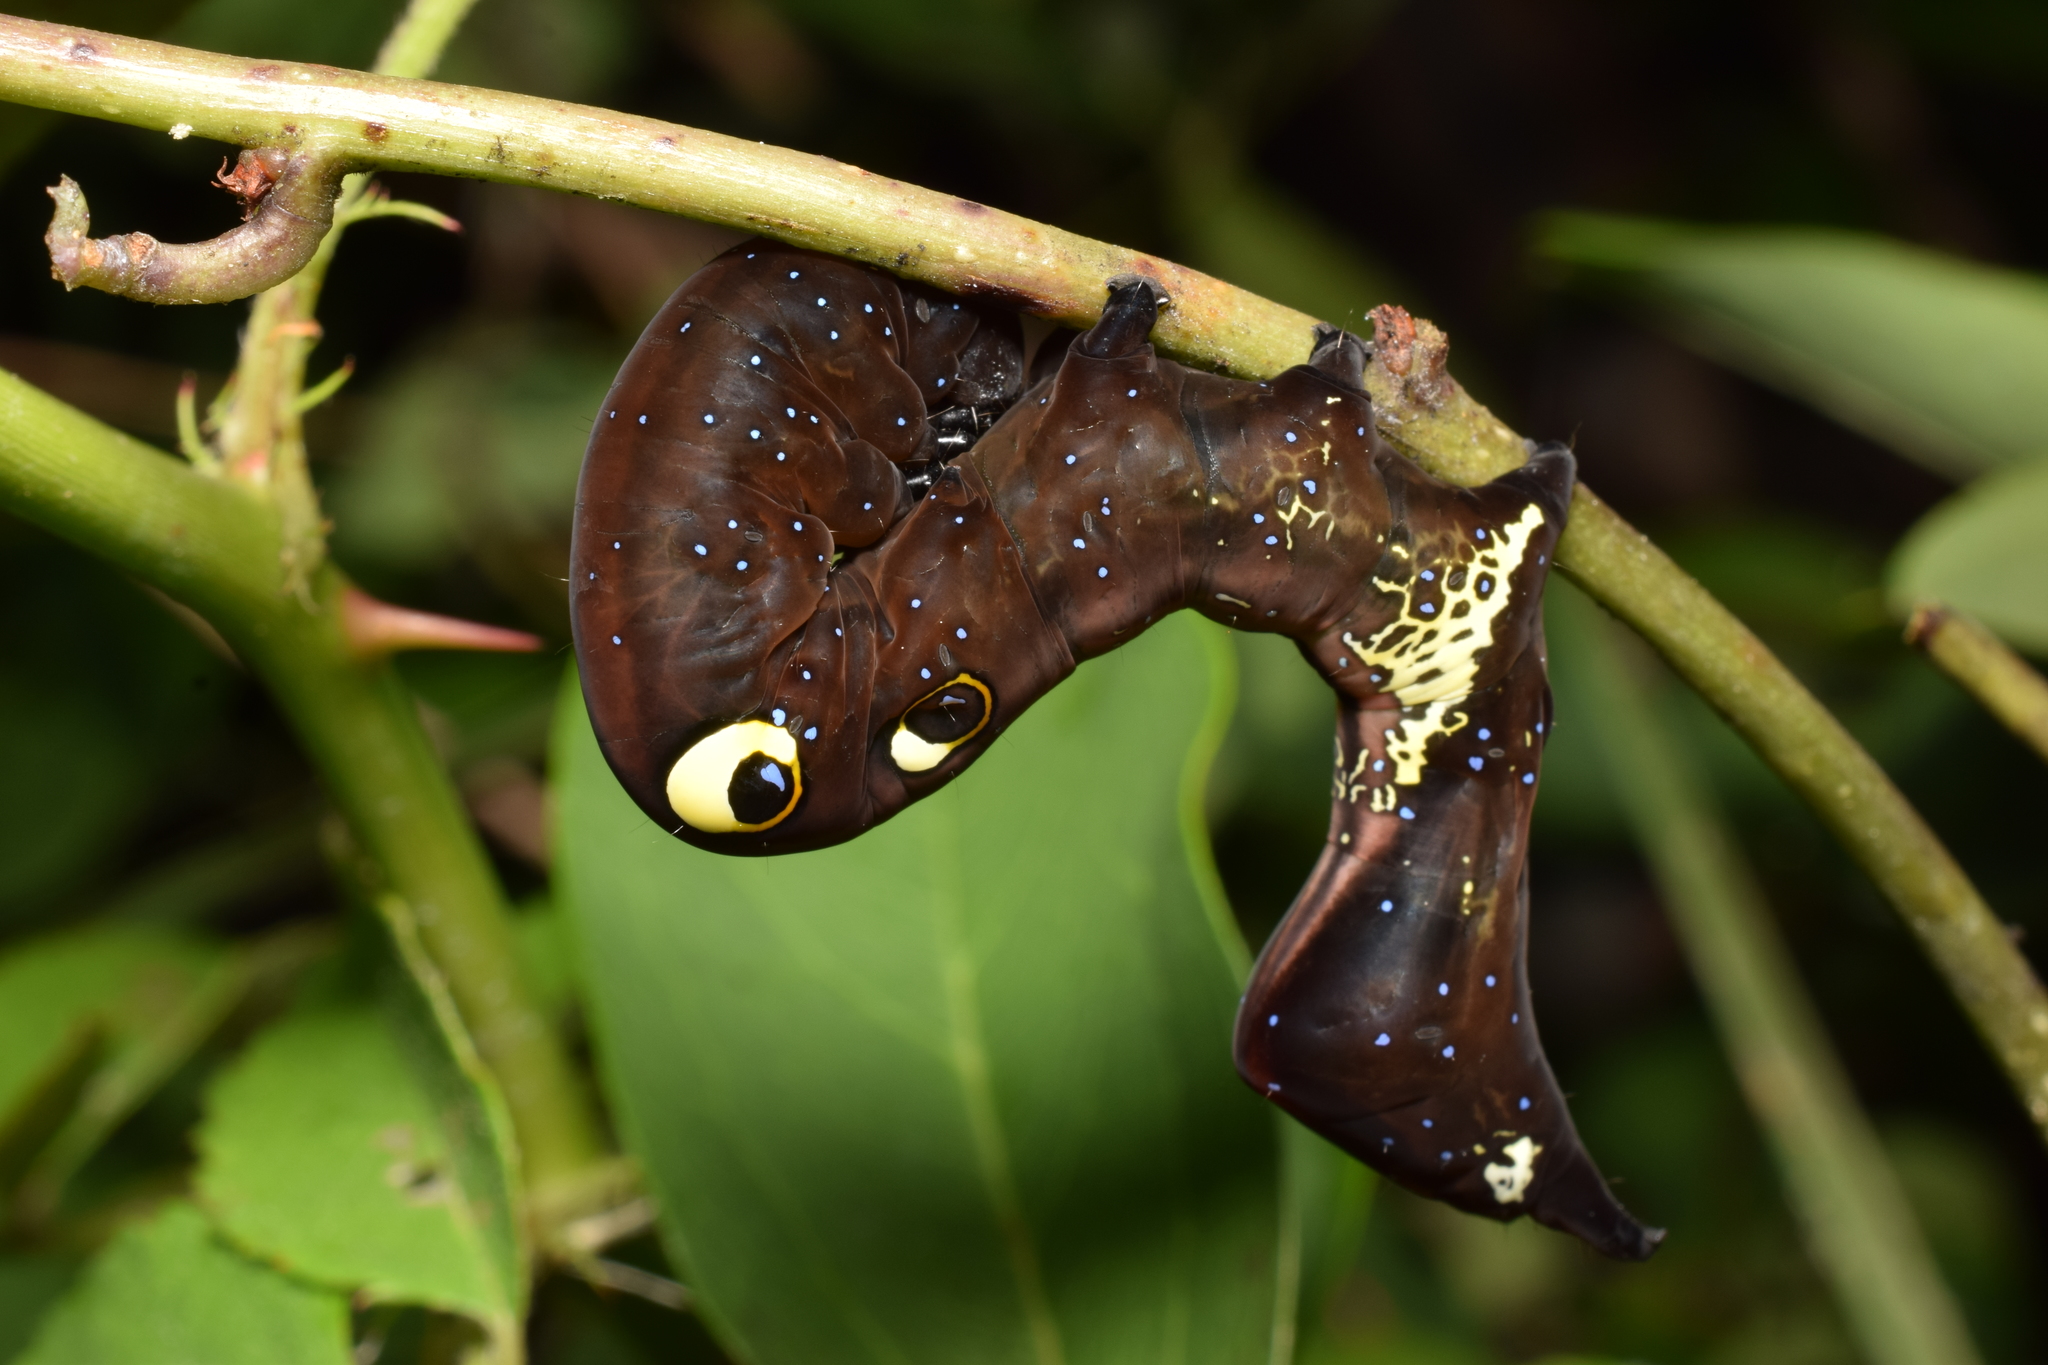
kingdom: Animalia
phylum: Arthropoda
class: Insecta
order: Lepidoptera
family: Erebidae
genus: Eudocima
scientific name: Eudocima tyrannus
